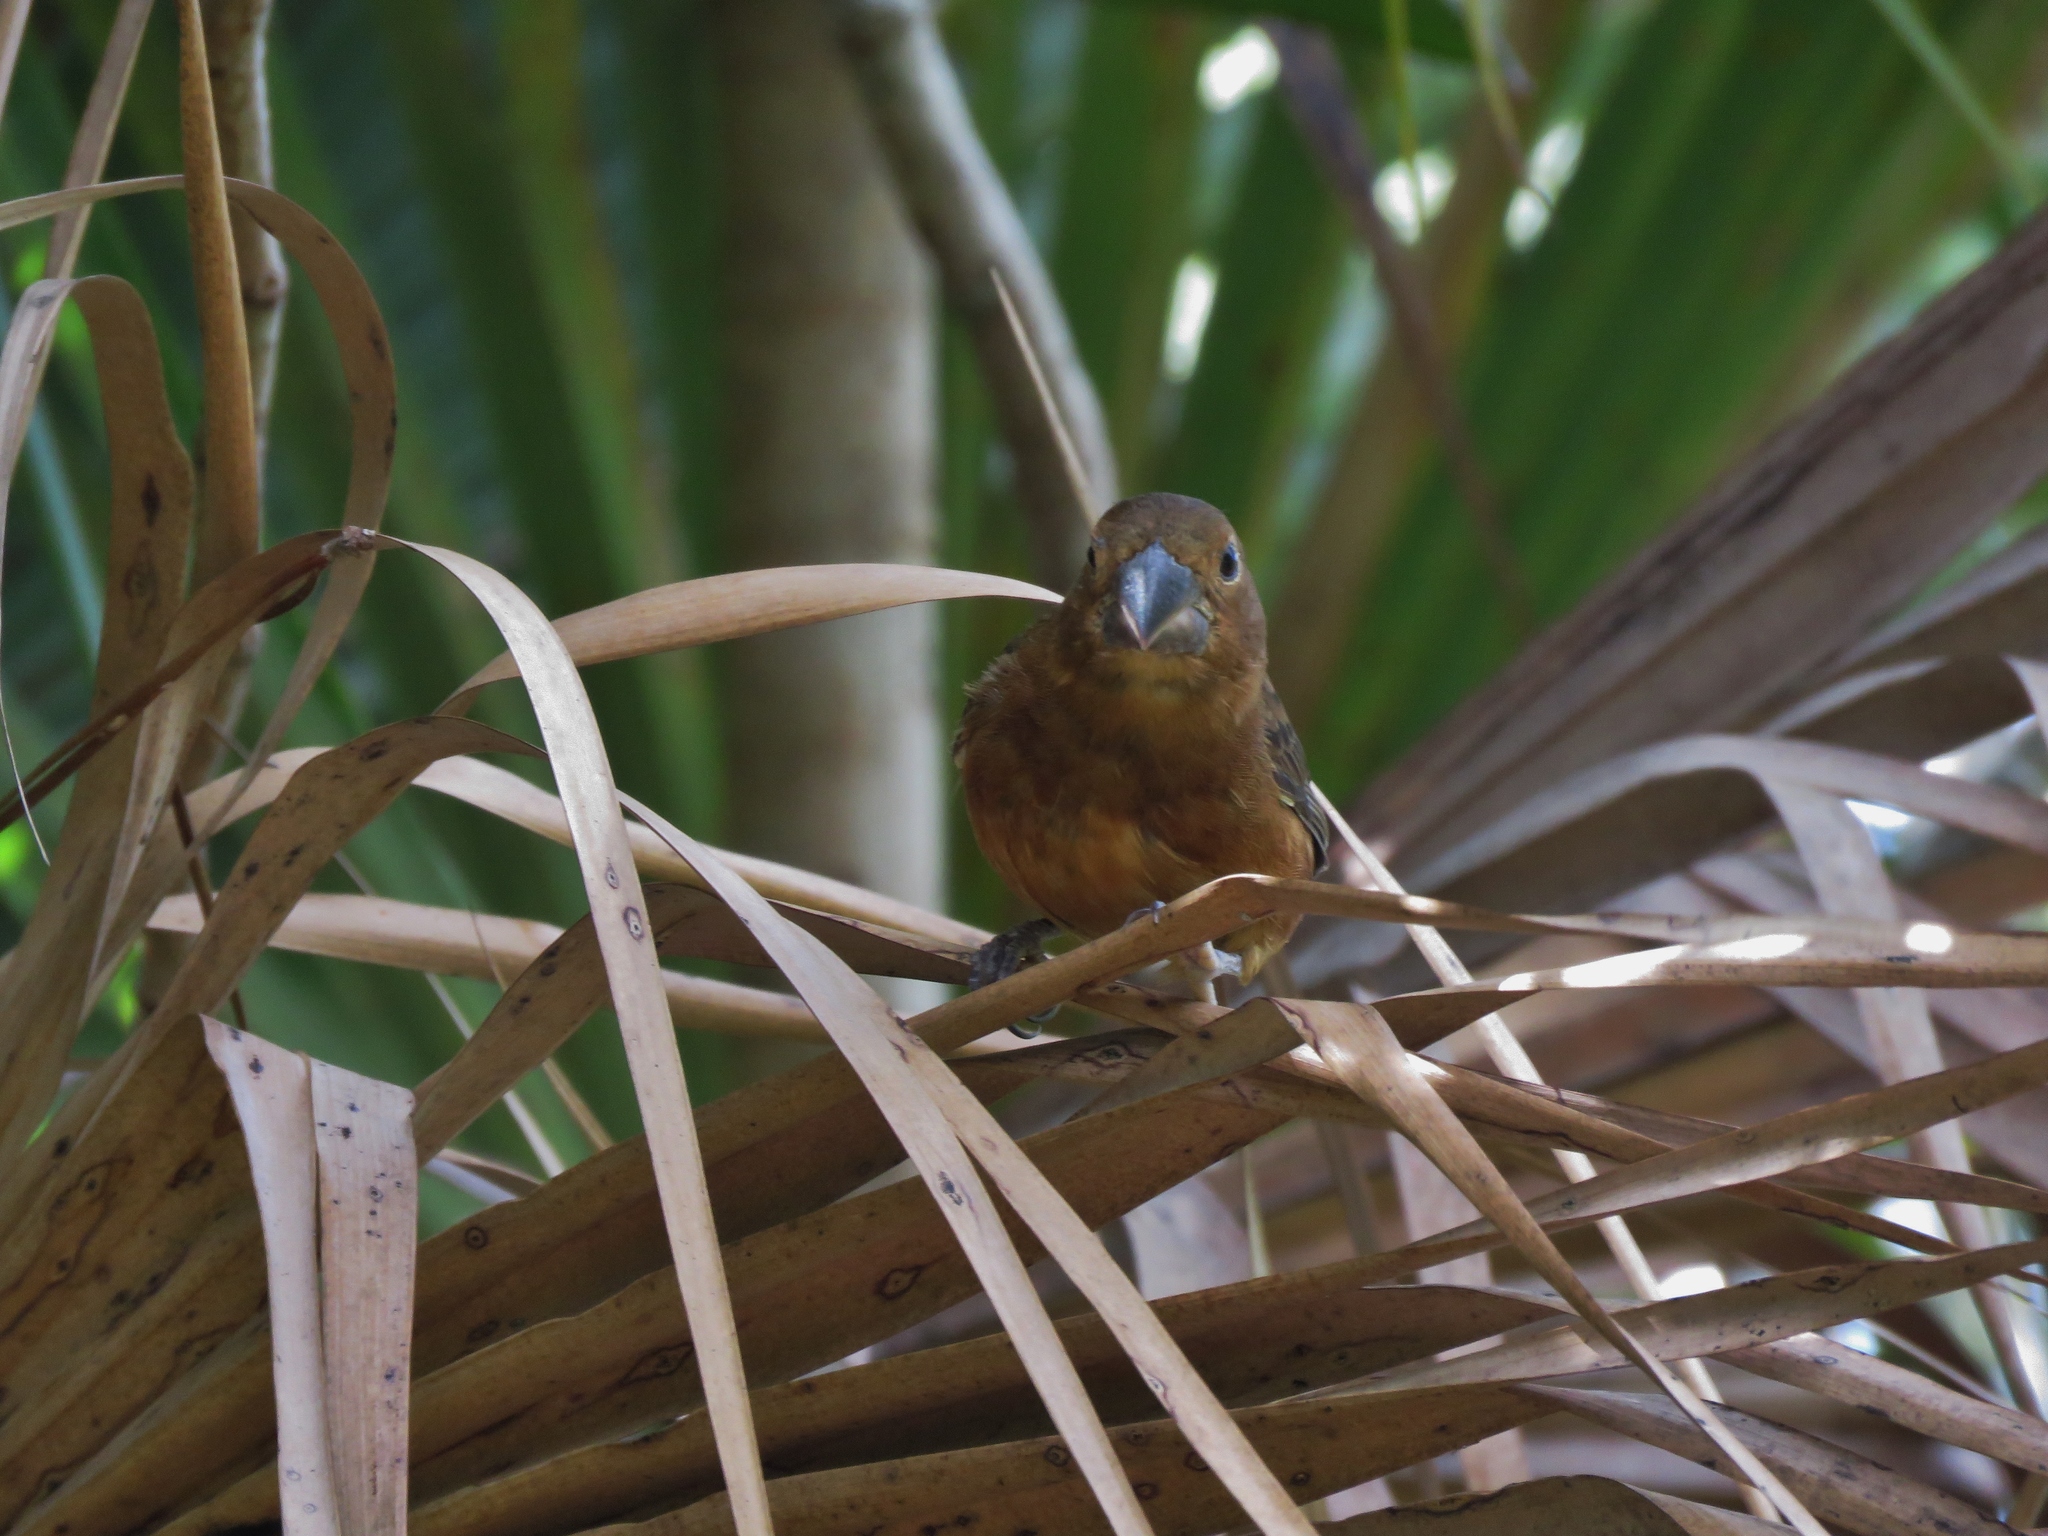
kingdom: Animalia
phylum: Chordata
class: Aves
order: Passeriformes
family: Thraupidae
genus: Sporophila
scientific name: Sporophila funerea
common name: Thick-billed seed-finch
